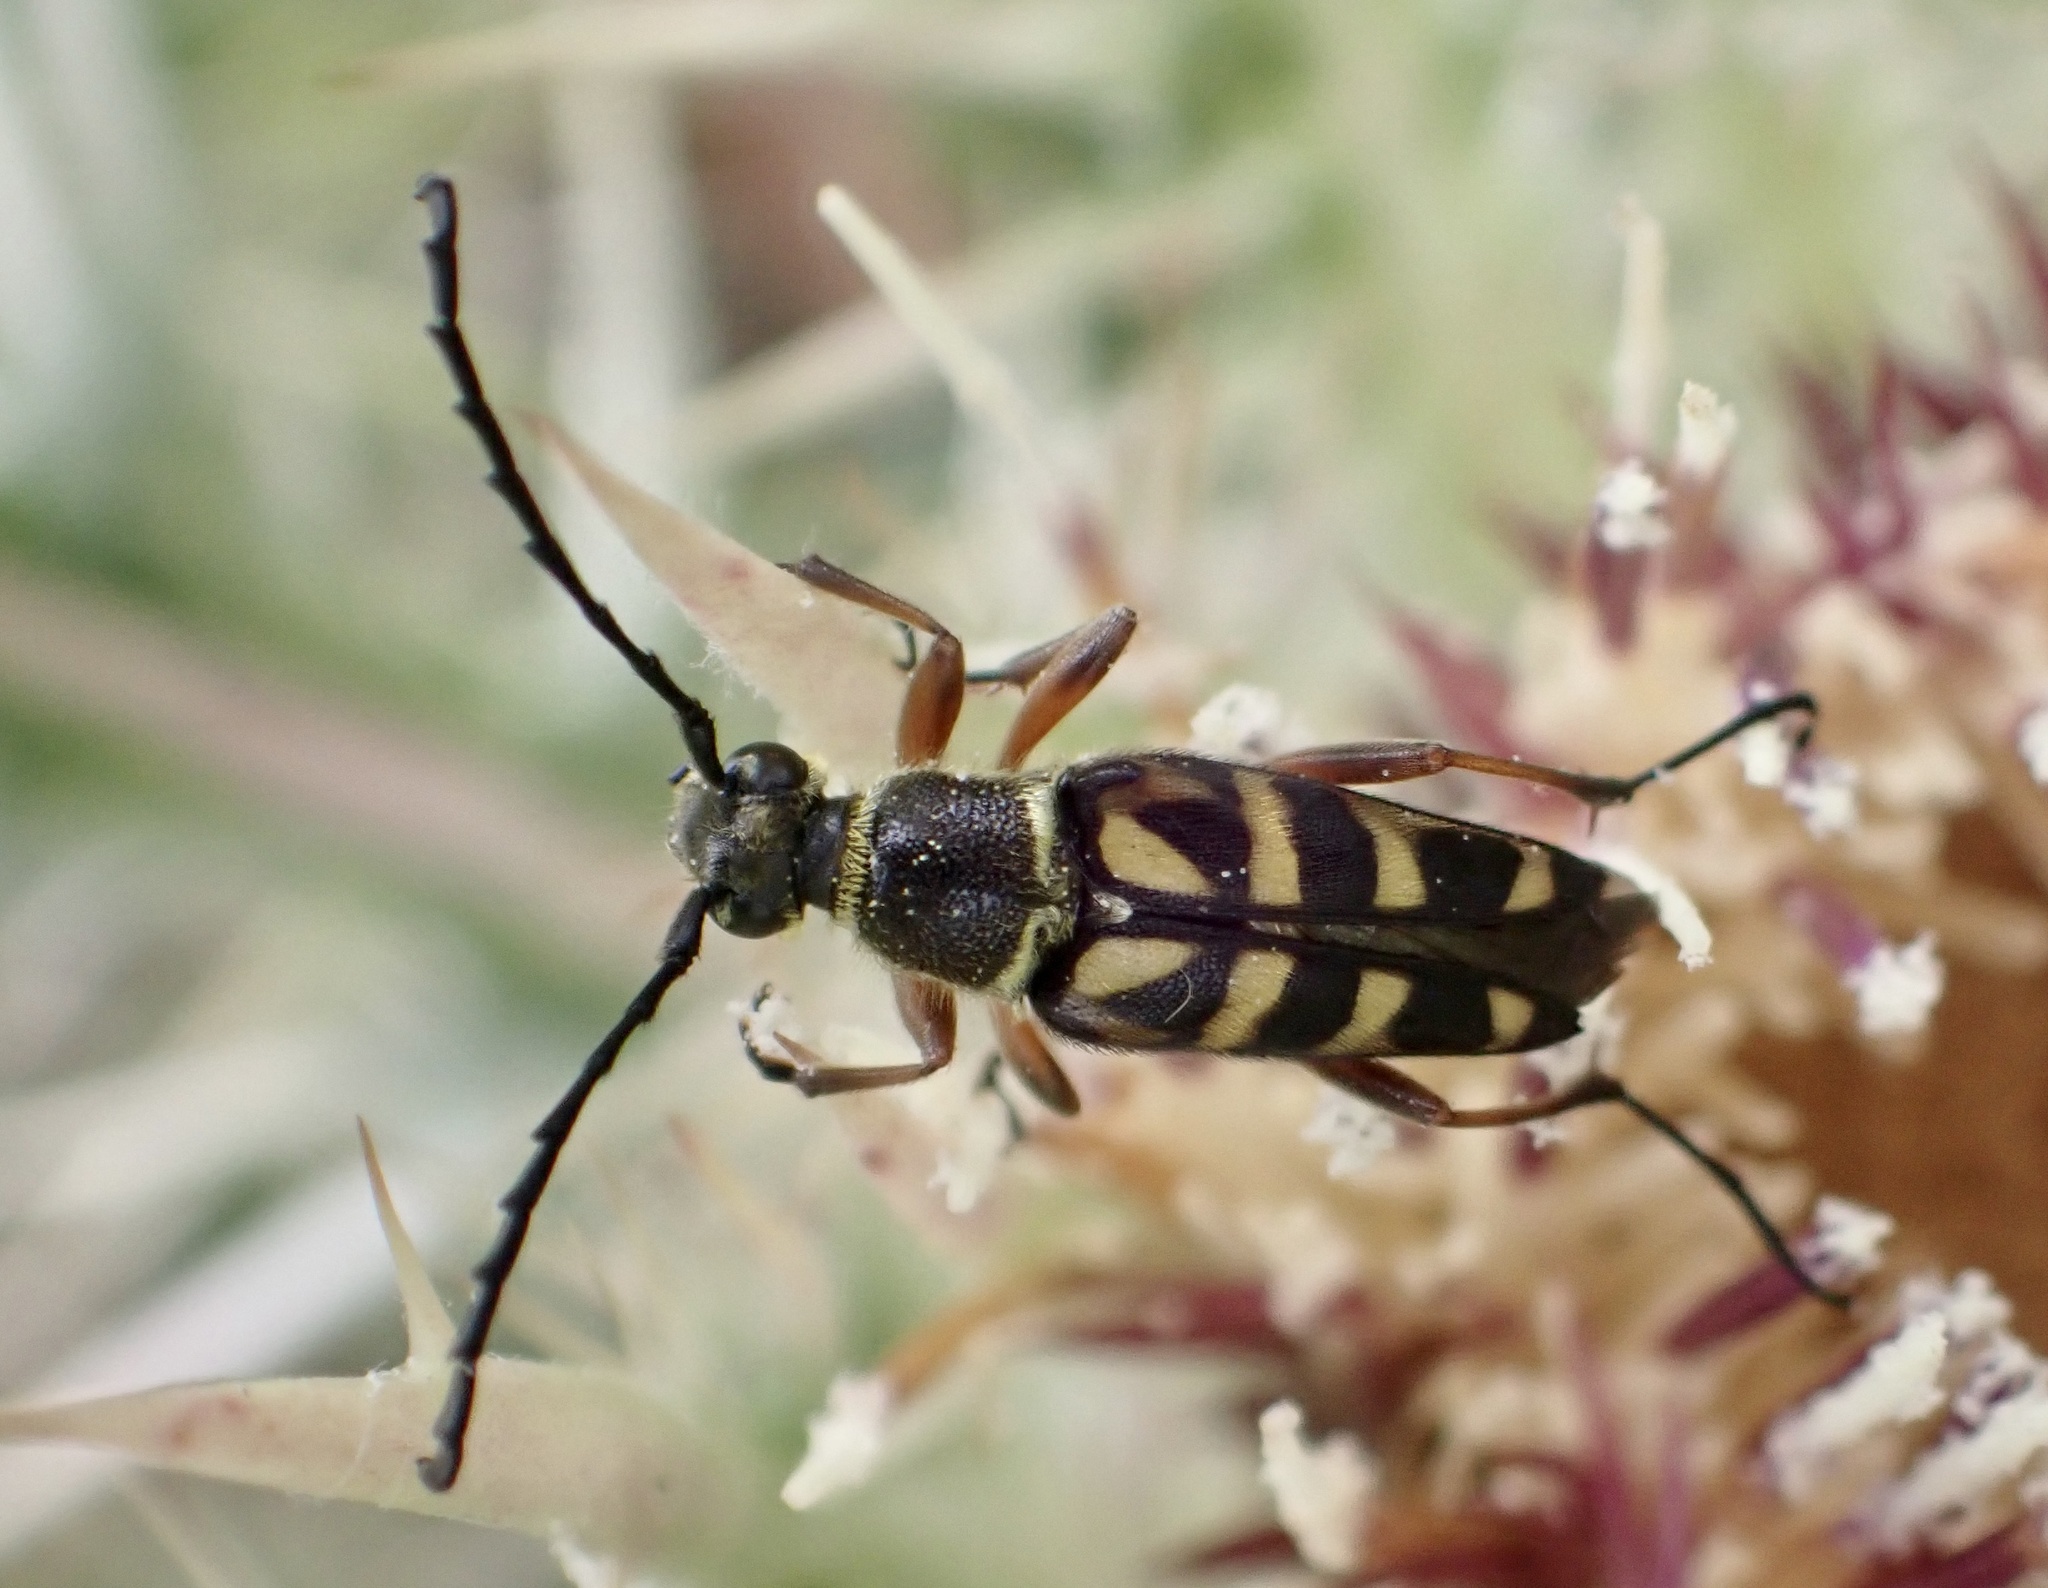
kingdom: Animalia
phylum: Arthropoda
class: Insecta
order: Coleoptera
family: Cerambycidae
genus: Typocerus
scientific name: Typocerus zebra
